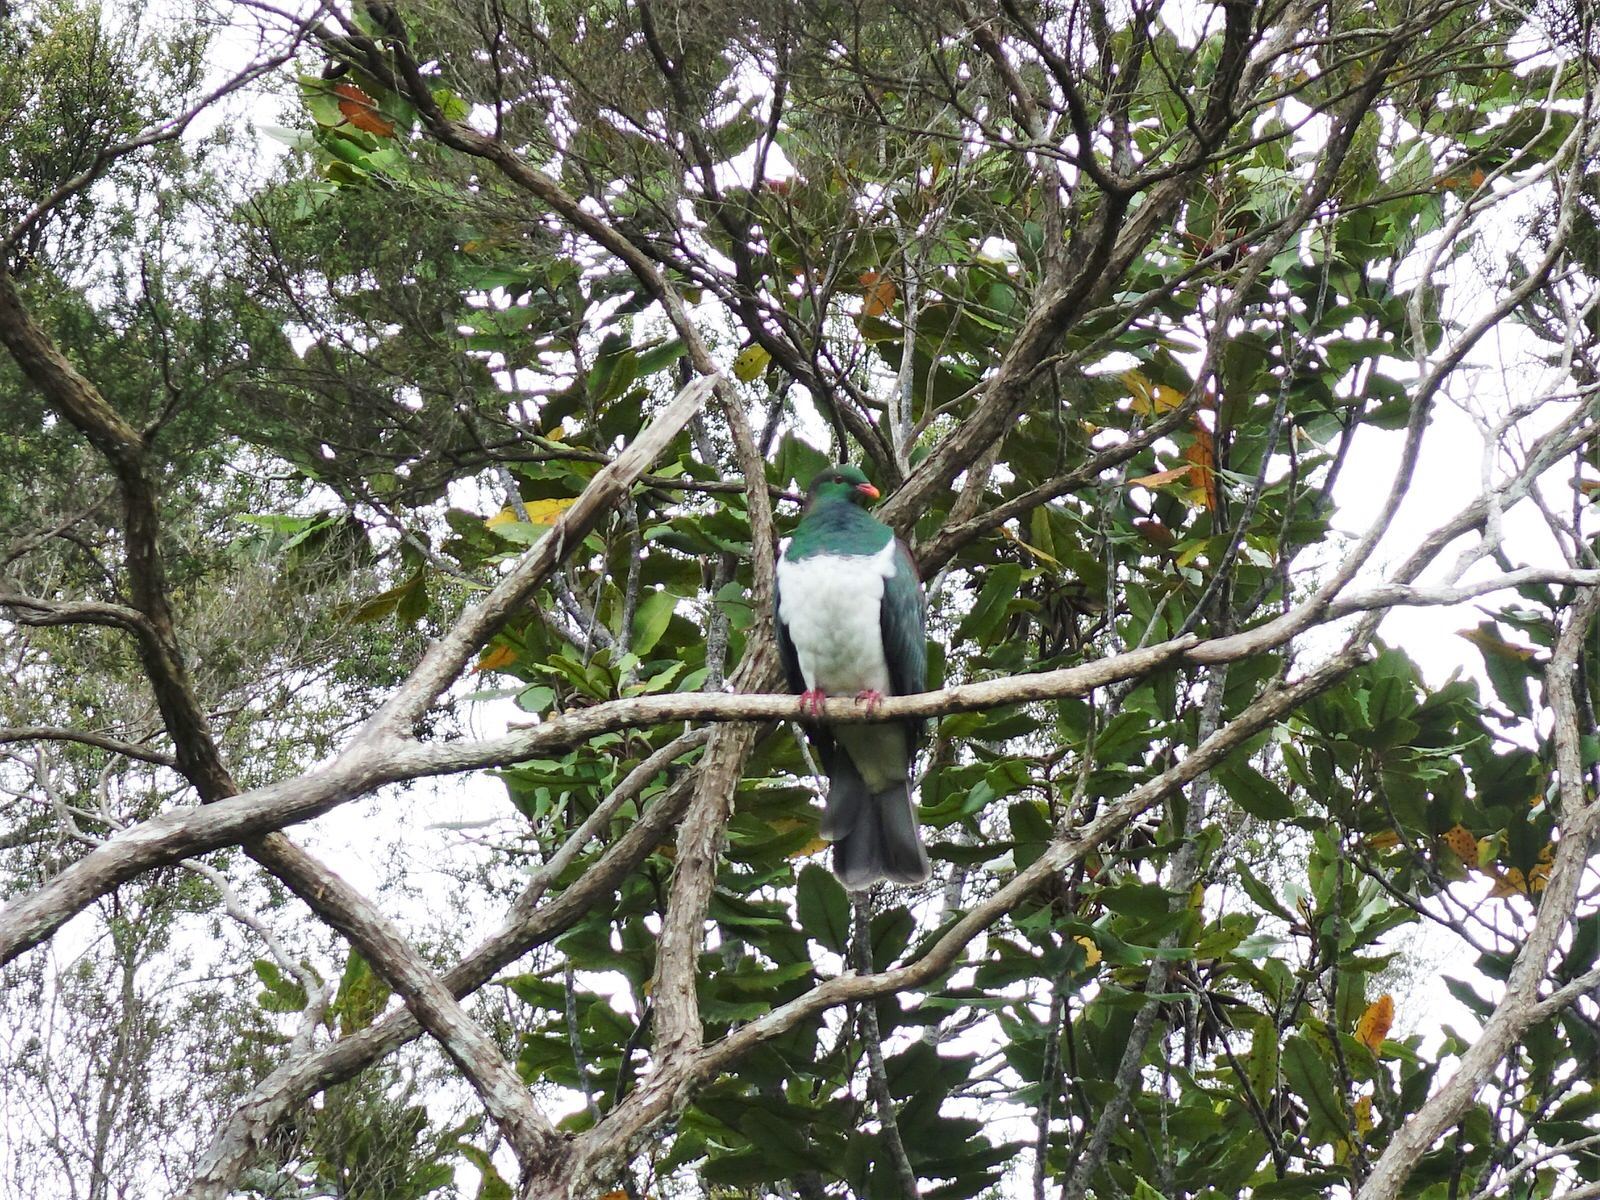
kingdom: Animalia
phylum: Chordata
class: Aves
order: Columbiformes
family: Columbidae
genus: Hemiphaga
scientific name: Hemiphaga novaeseelandiae
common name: New zealand pigeon
